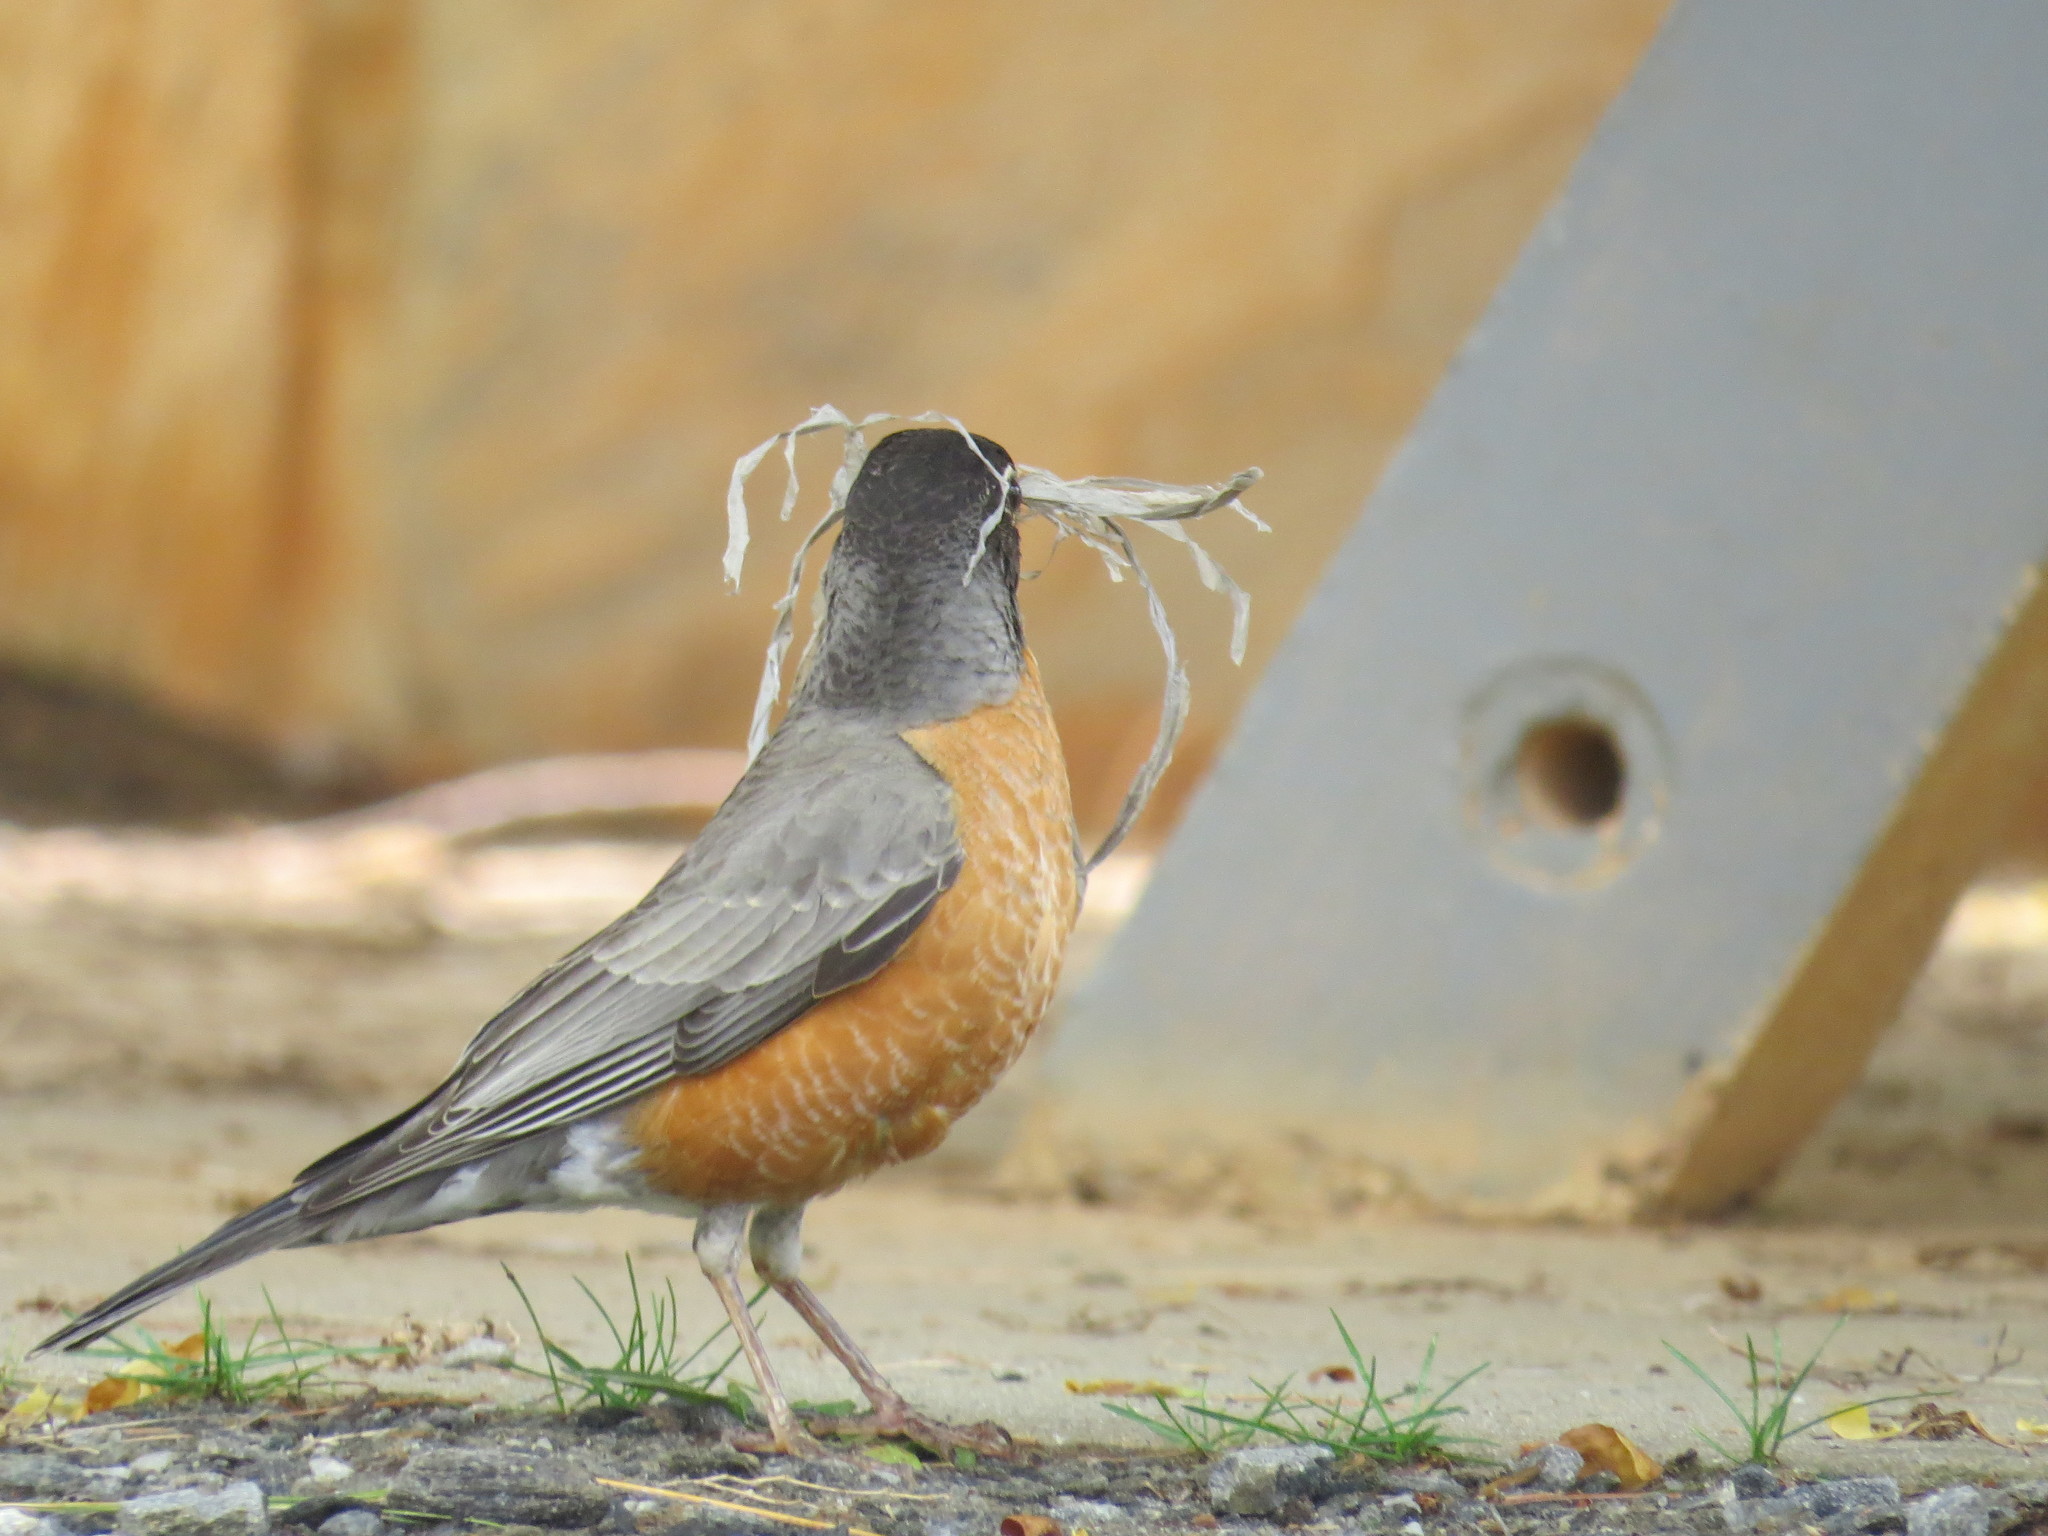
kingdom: Animalia
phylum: Chordata
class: Aves
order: Passeriformes
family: Turdidae
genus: Turdus
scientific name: Turdus migratorius
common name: American robin
